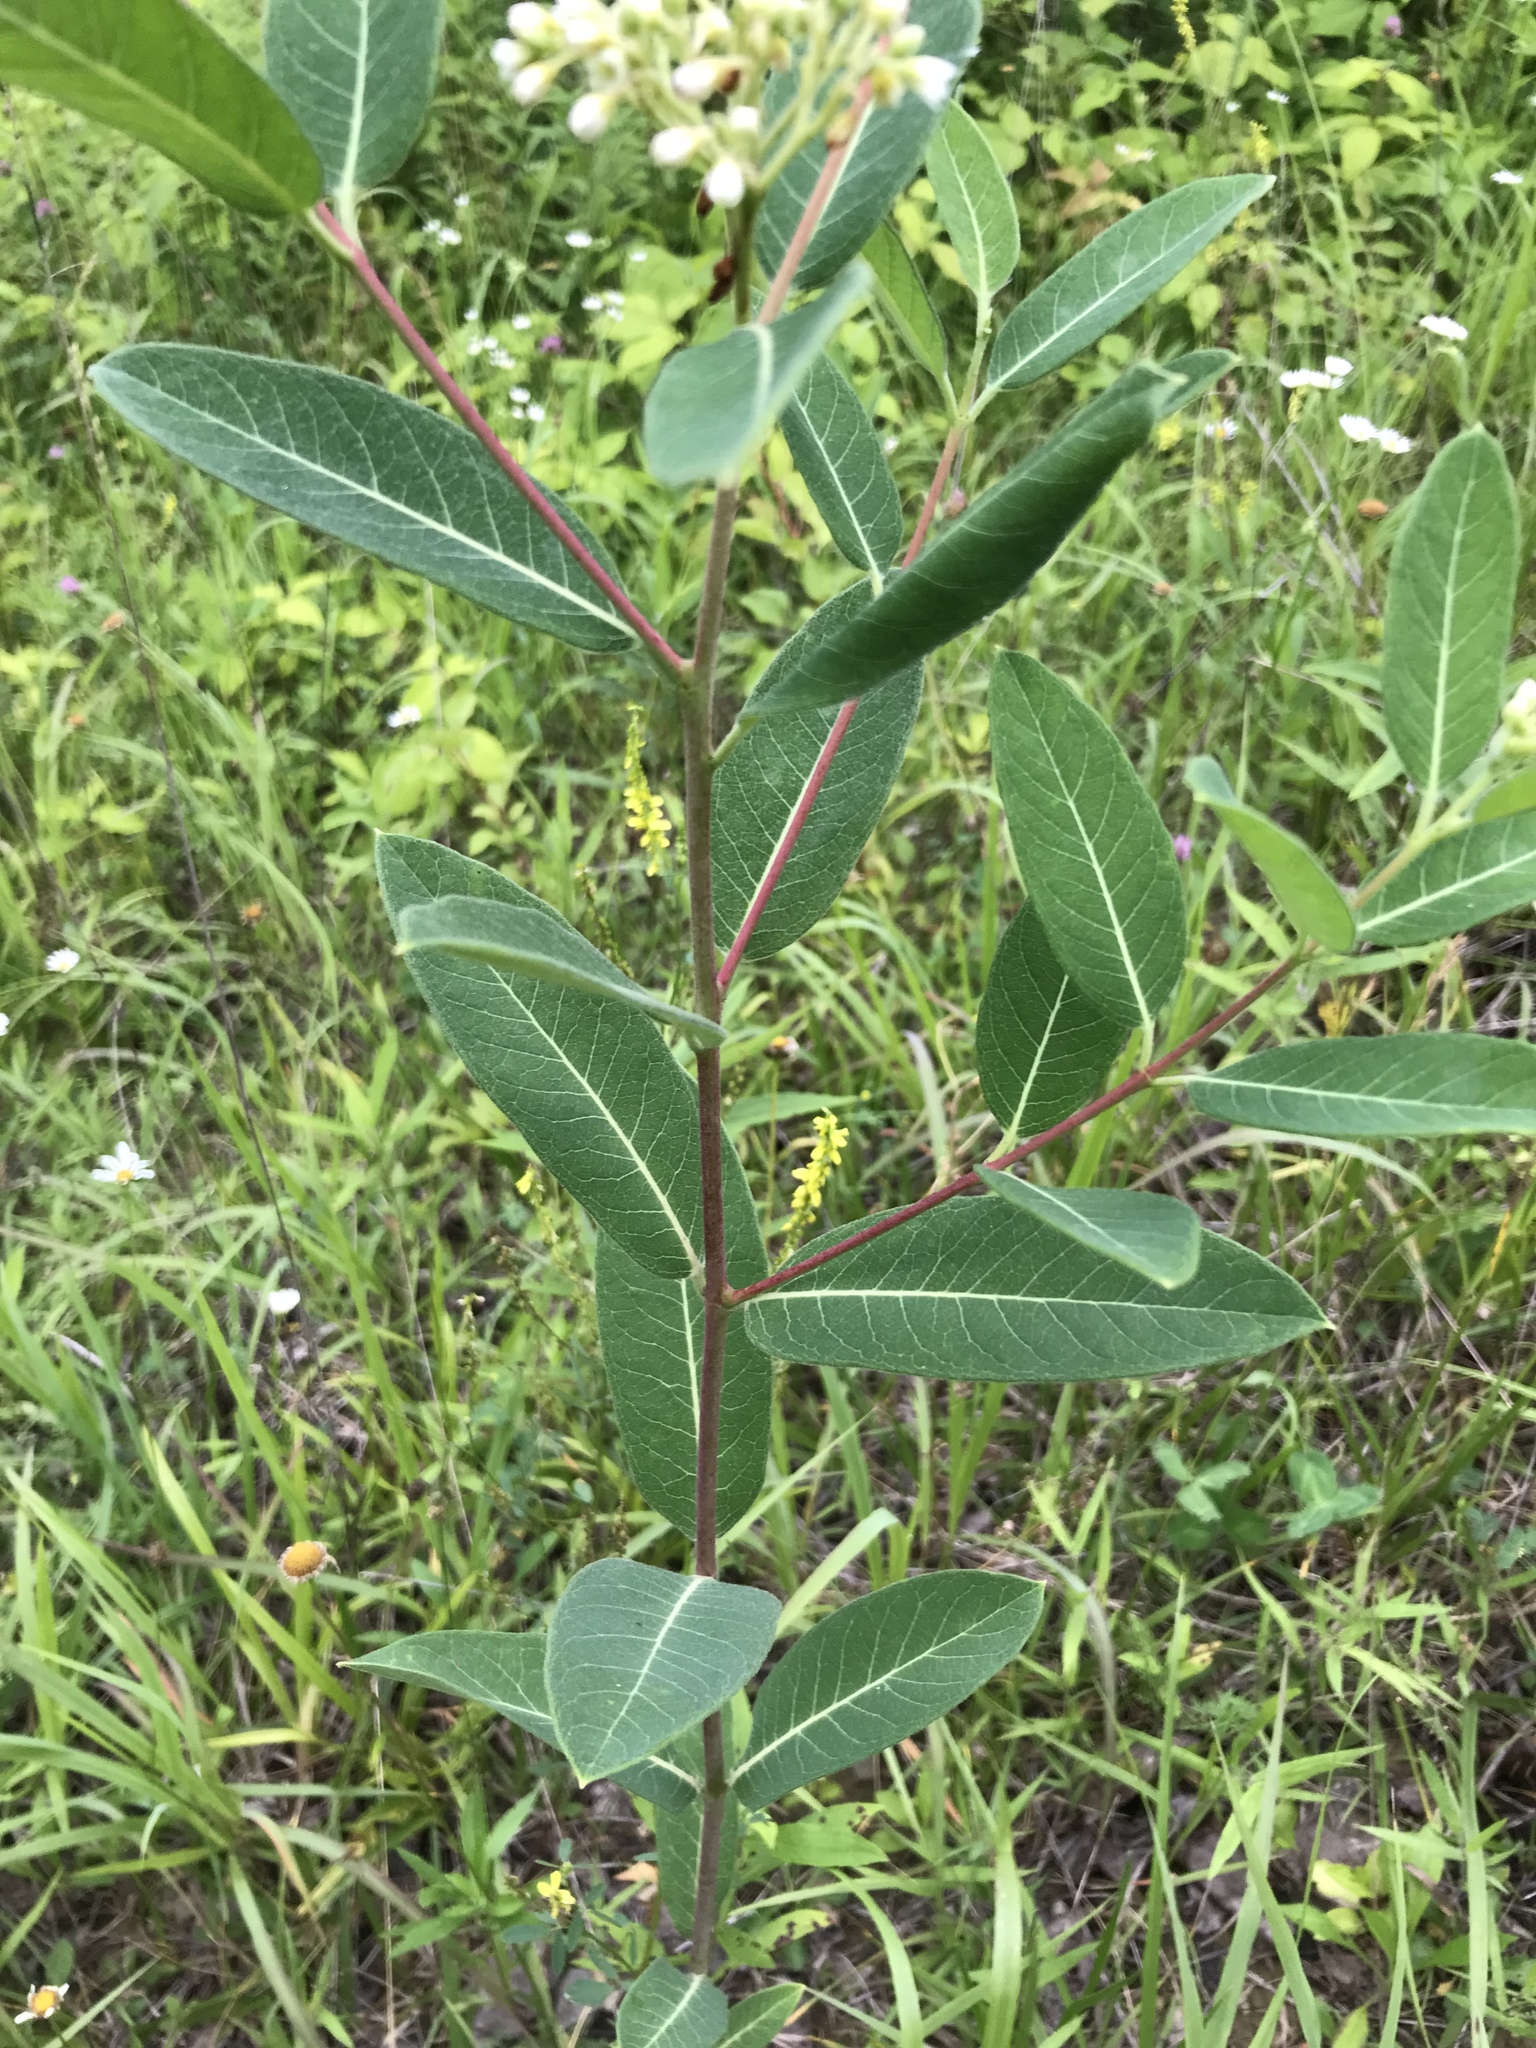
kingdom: Plantae
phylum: Tracheophyta
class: Magnoliopsida
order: Gentianales
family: Apocynaceae
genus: Apocynum
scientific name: Apocynum cannabinum
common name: Hemp dogbane
